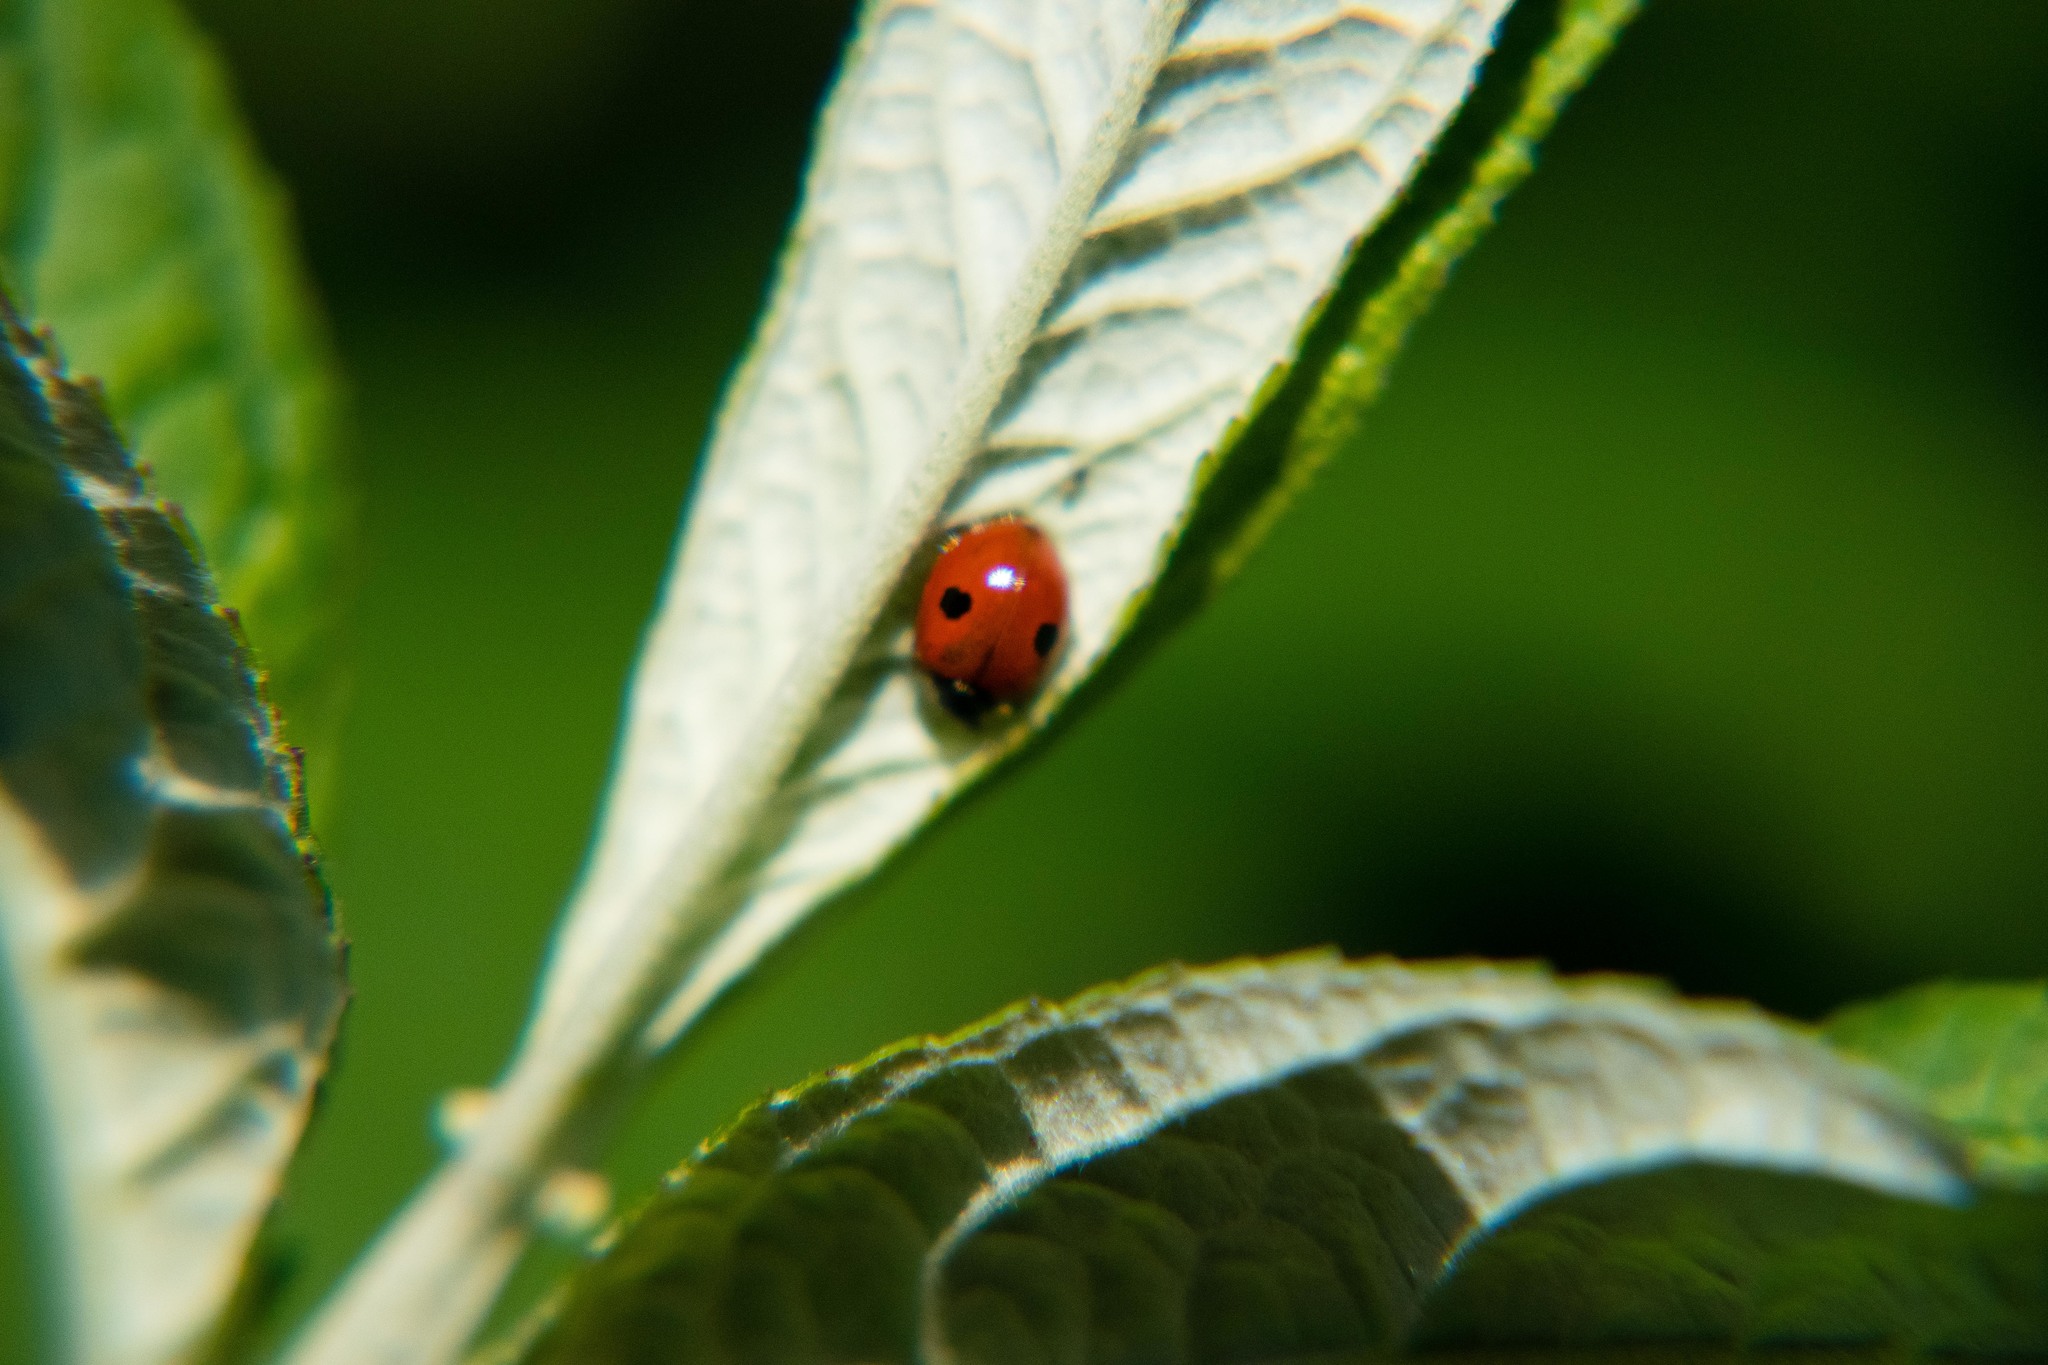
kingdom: Animalia
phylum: Arthropoda
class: Insecta
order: Coleoptera
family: Coccinellidae
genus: Adalia
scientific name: Adalia bipunctata
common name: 2-spot ladybird
